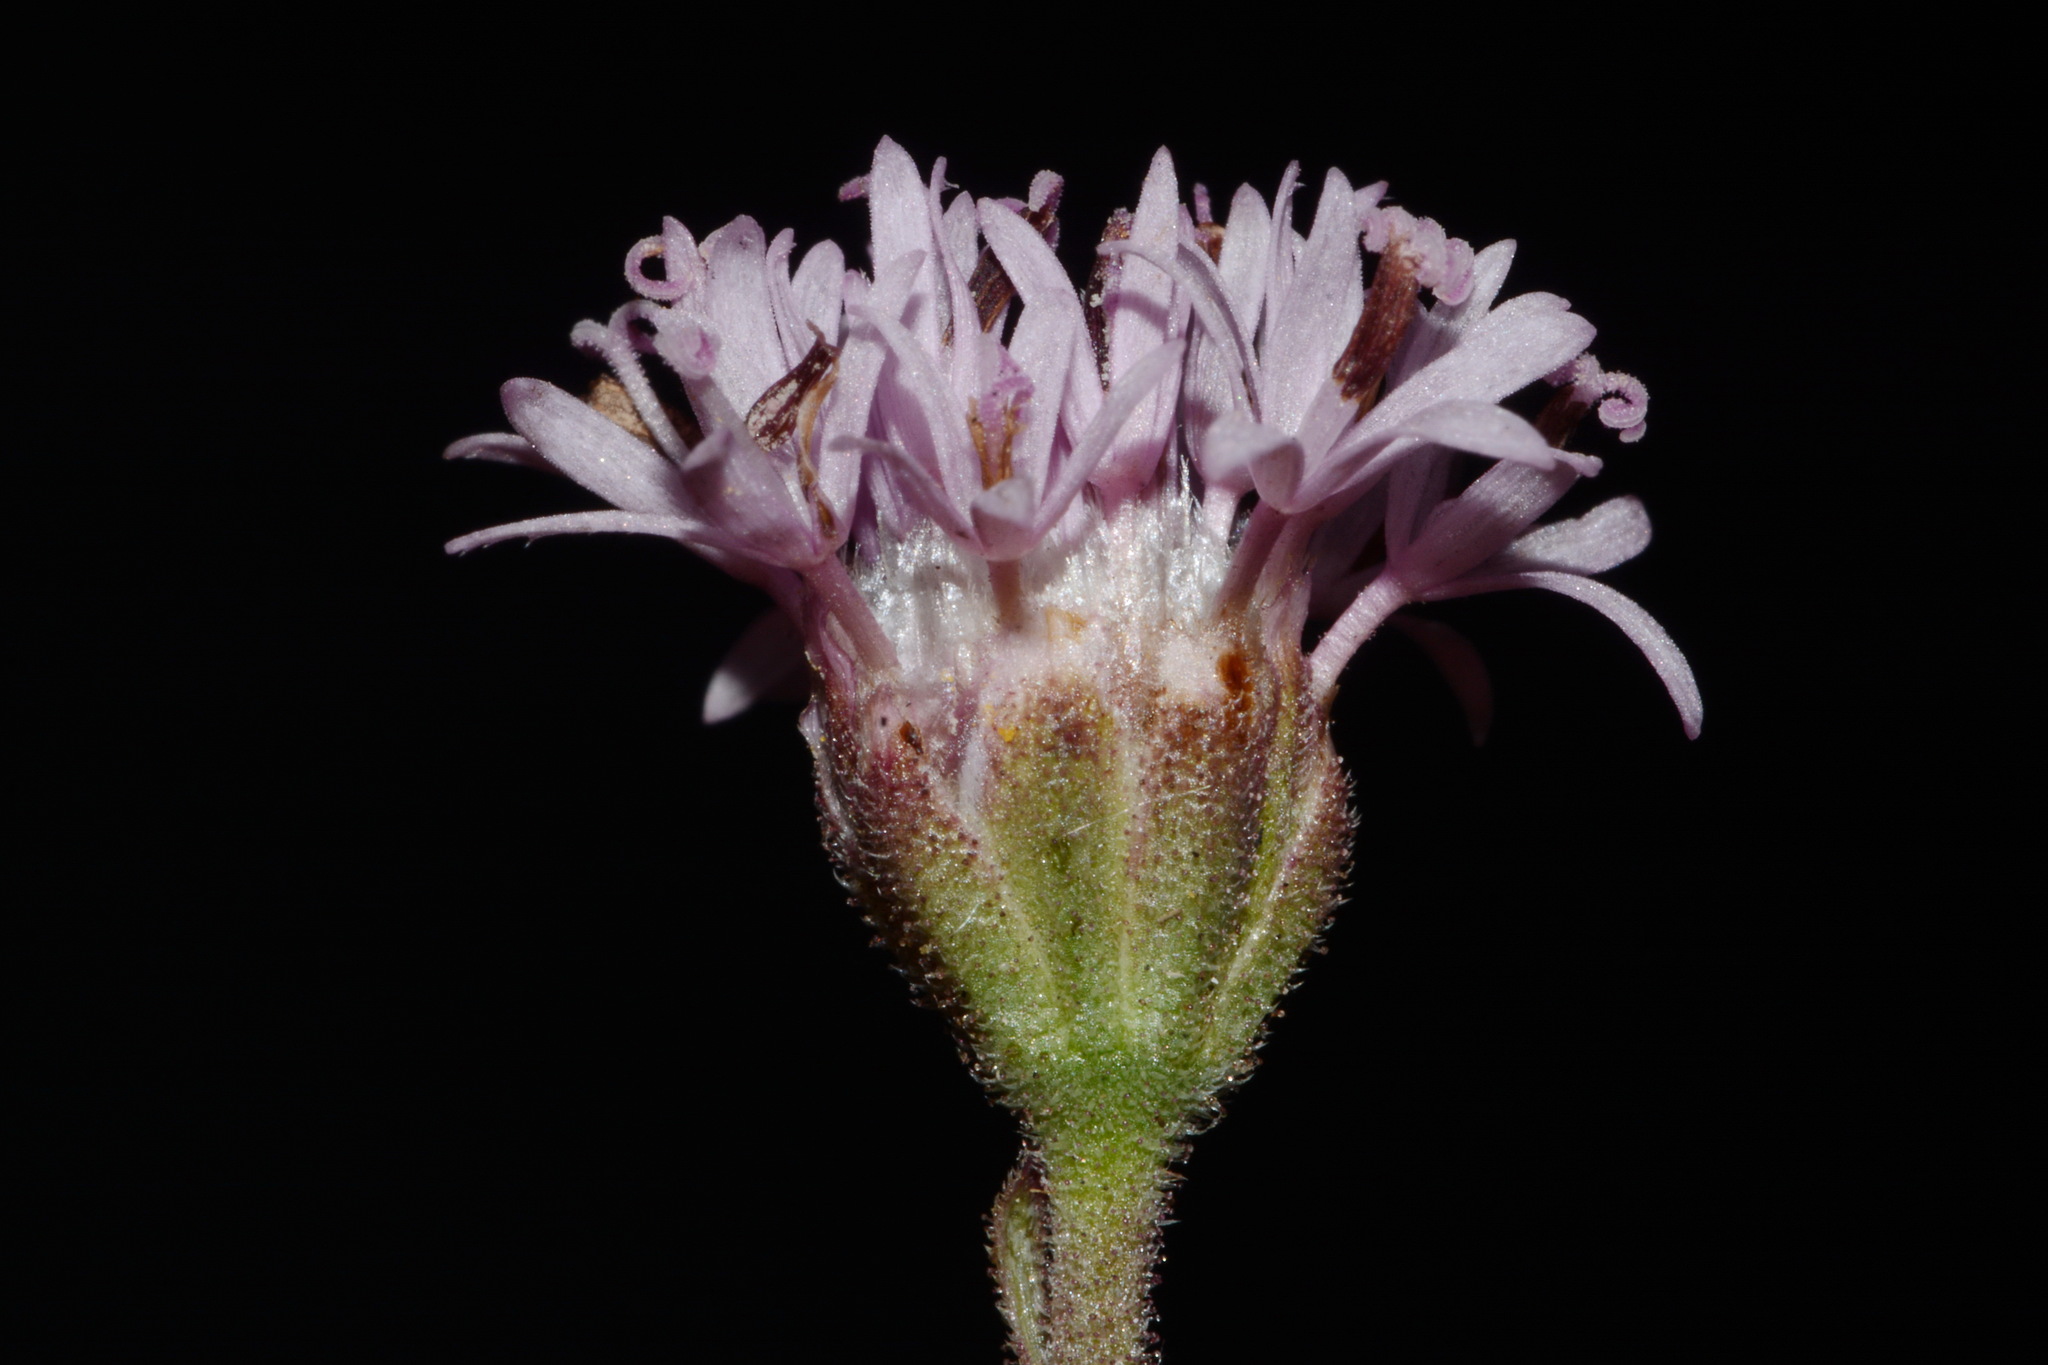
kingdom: Plantae
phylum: Tracheophyta
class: Magnoliopsida
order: Asterales
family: Asteraceae
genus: Palafoxia
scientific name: Palafoxia texana
